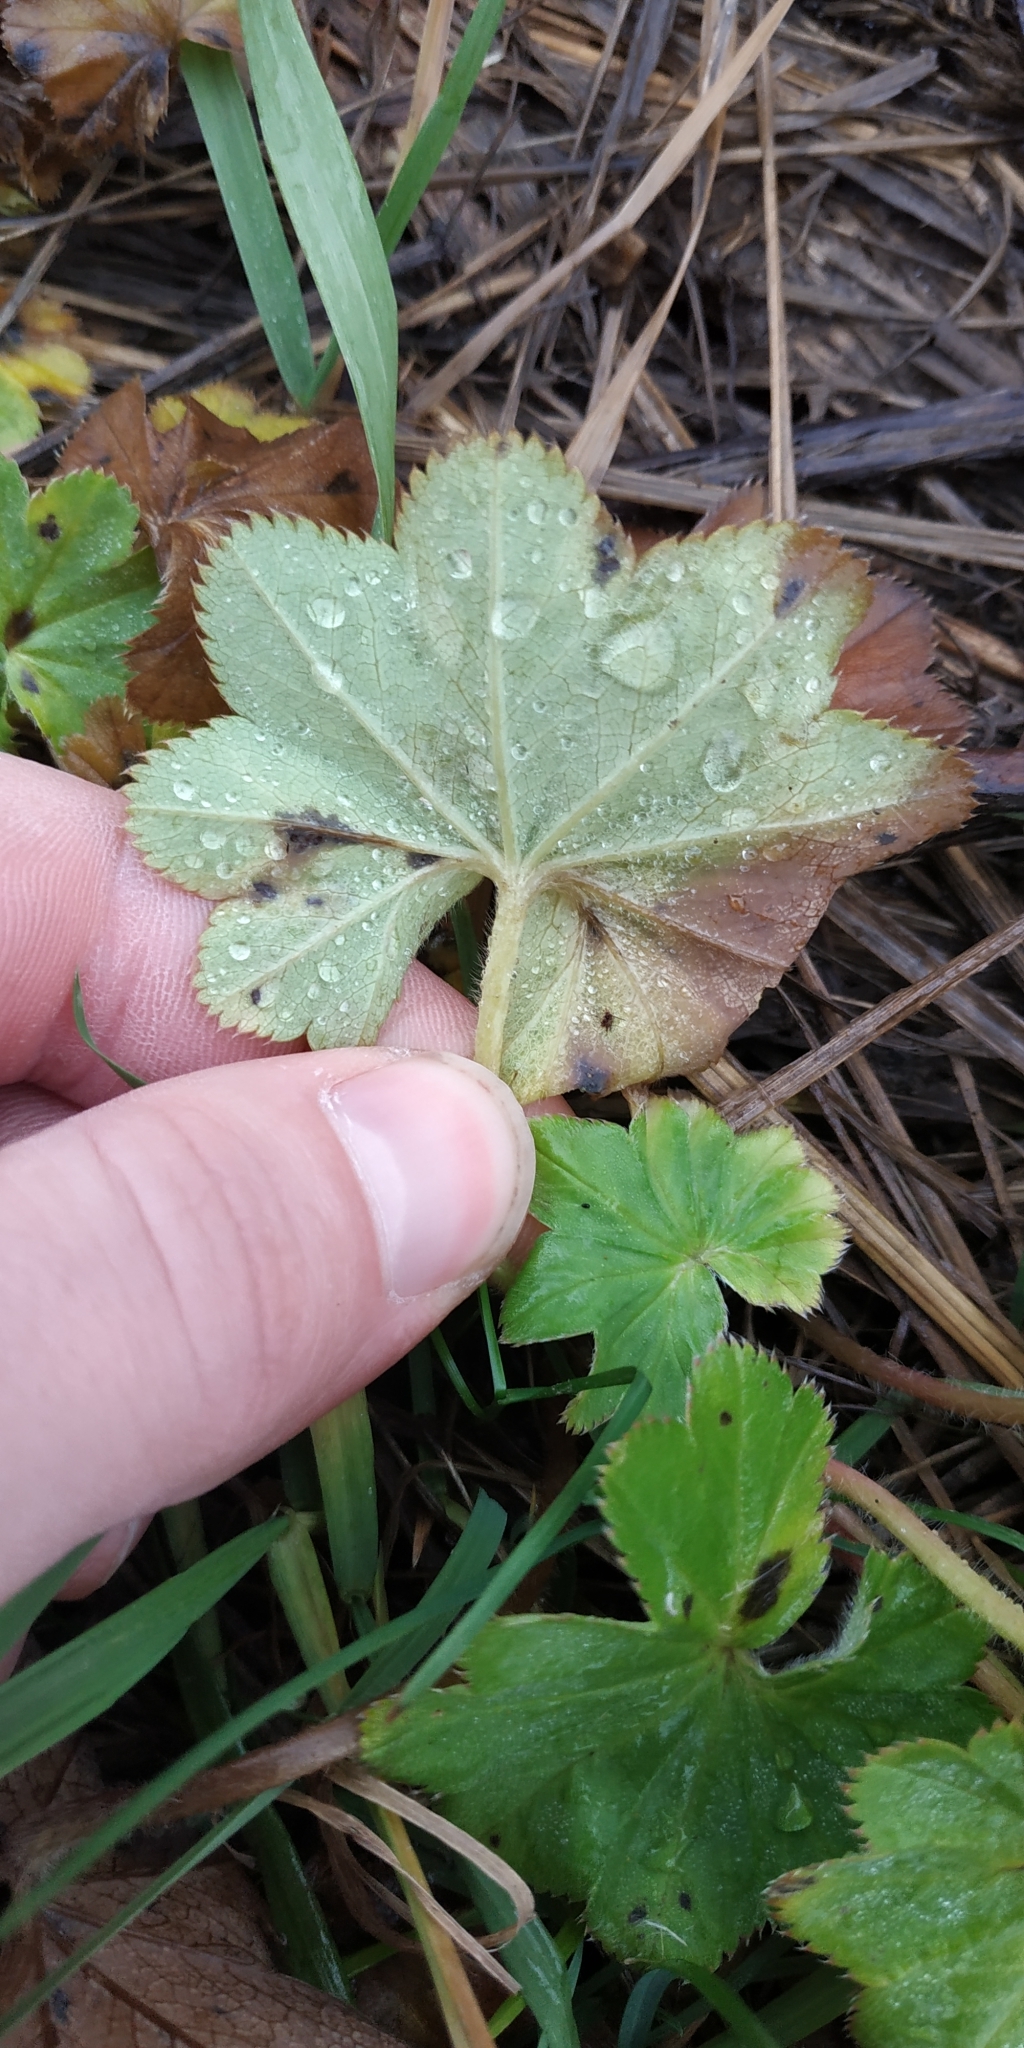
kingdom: Plantae
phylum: Tracheophyta
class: Magnoliopsida
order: Rosales
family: Rosaceae
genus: Alchemilla
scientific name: Alchemilla
